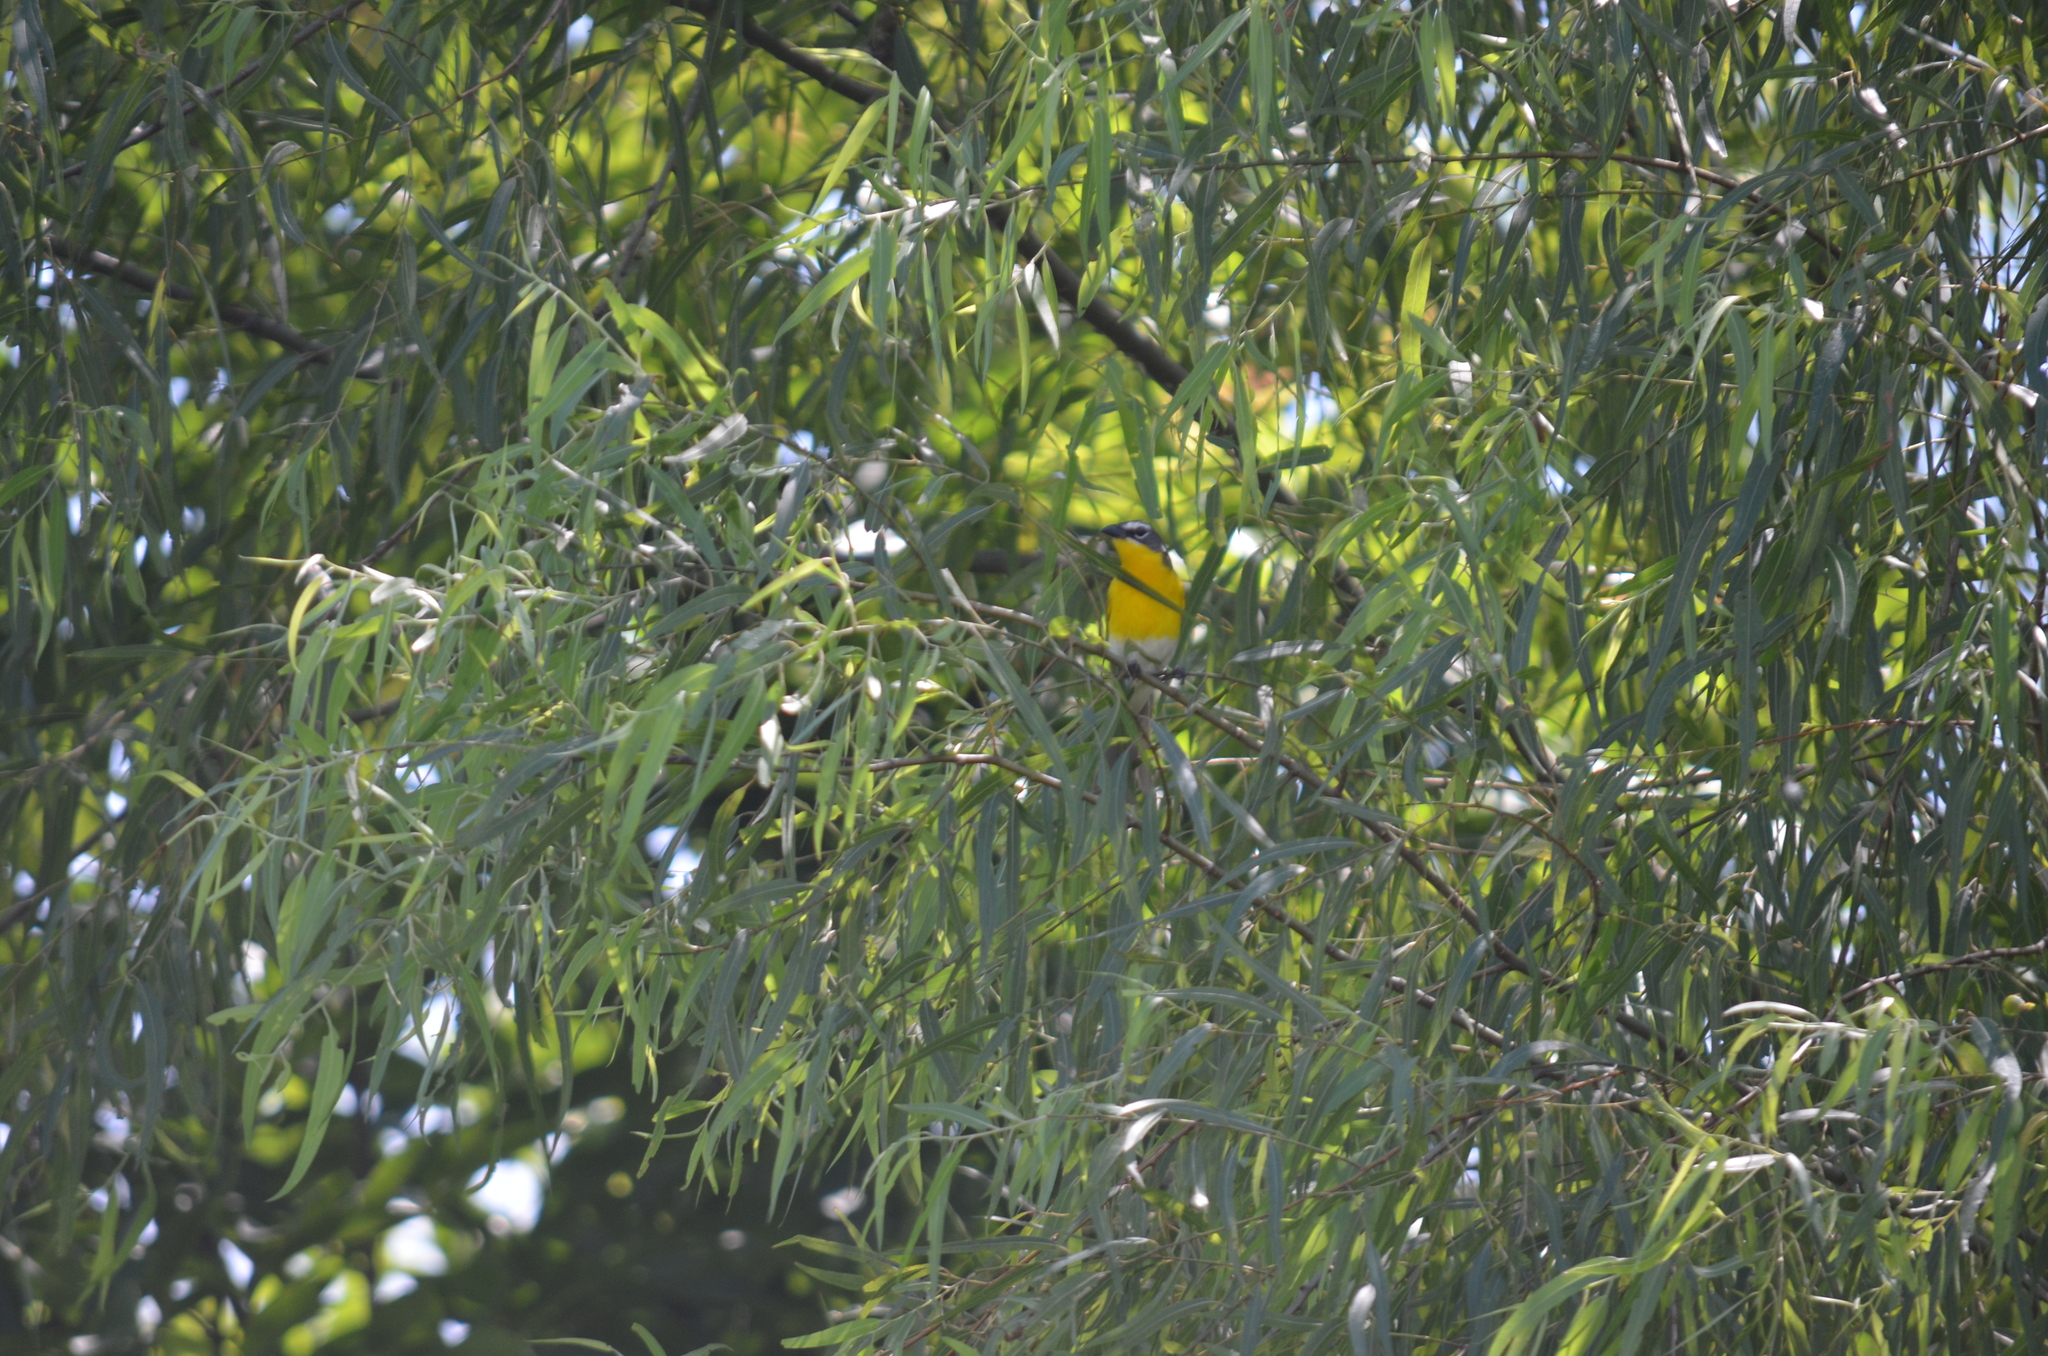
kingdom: Animalia
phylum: Chordata
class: Aves
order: Passeriformes
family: Parulidae
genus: Icteria
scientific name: Icteria virens
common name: Yellow-breasted chat
